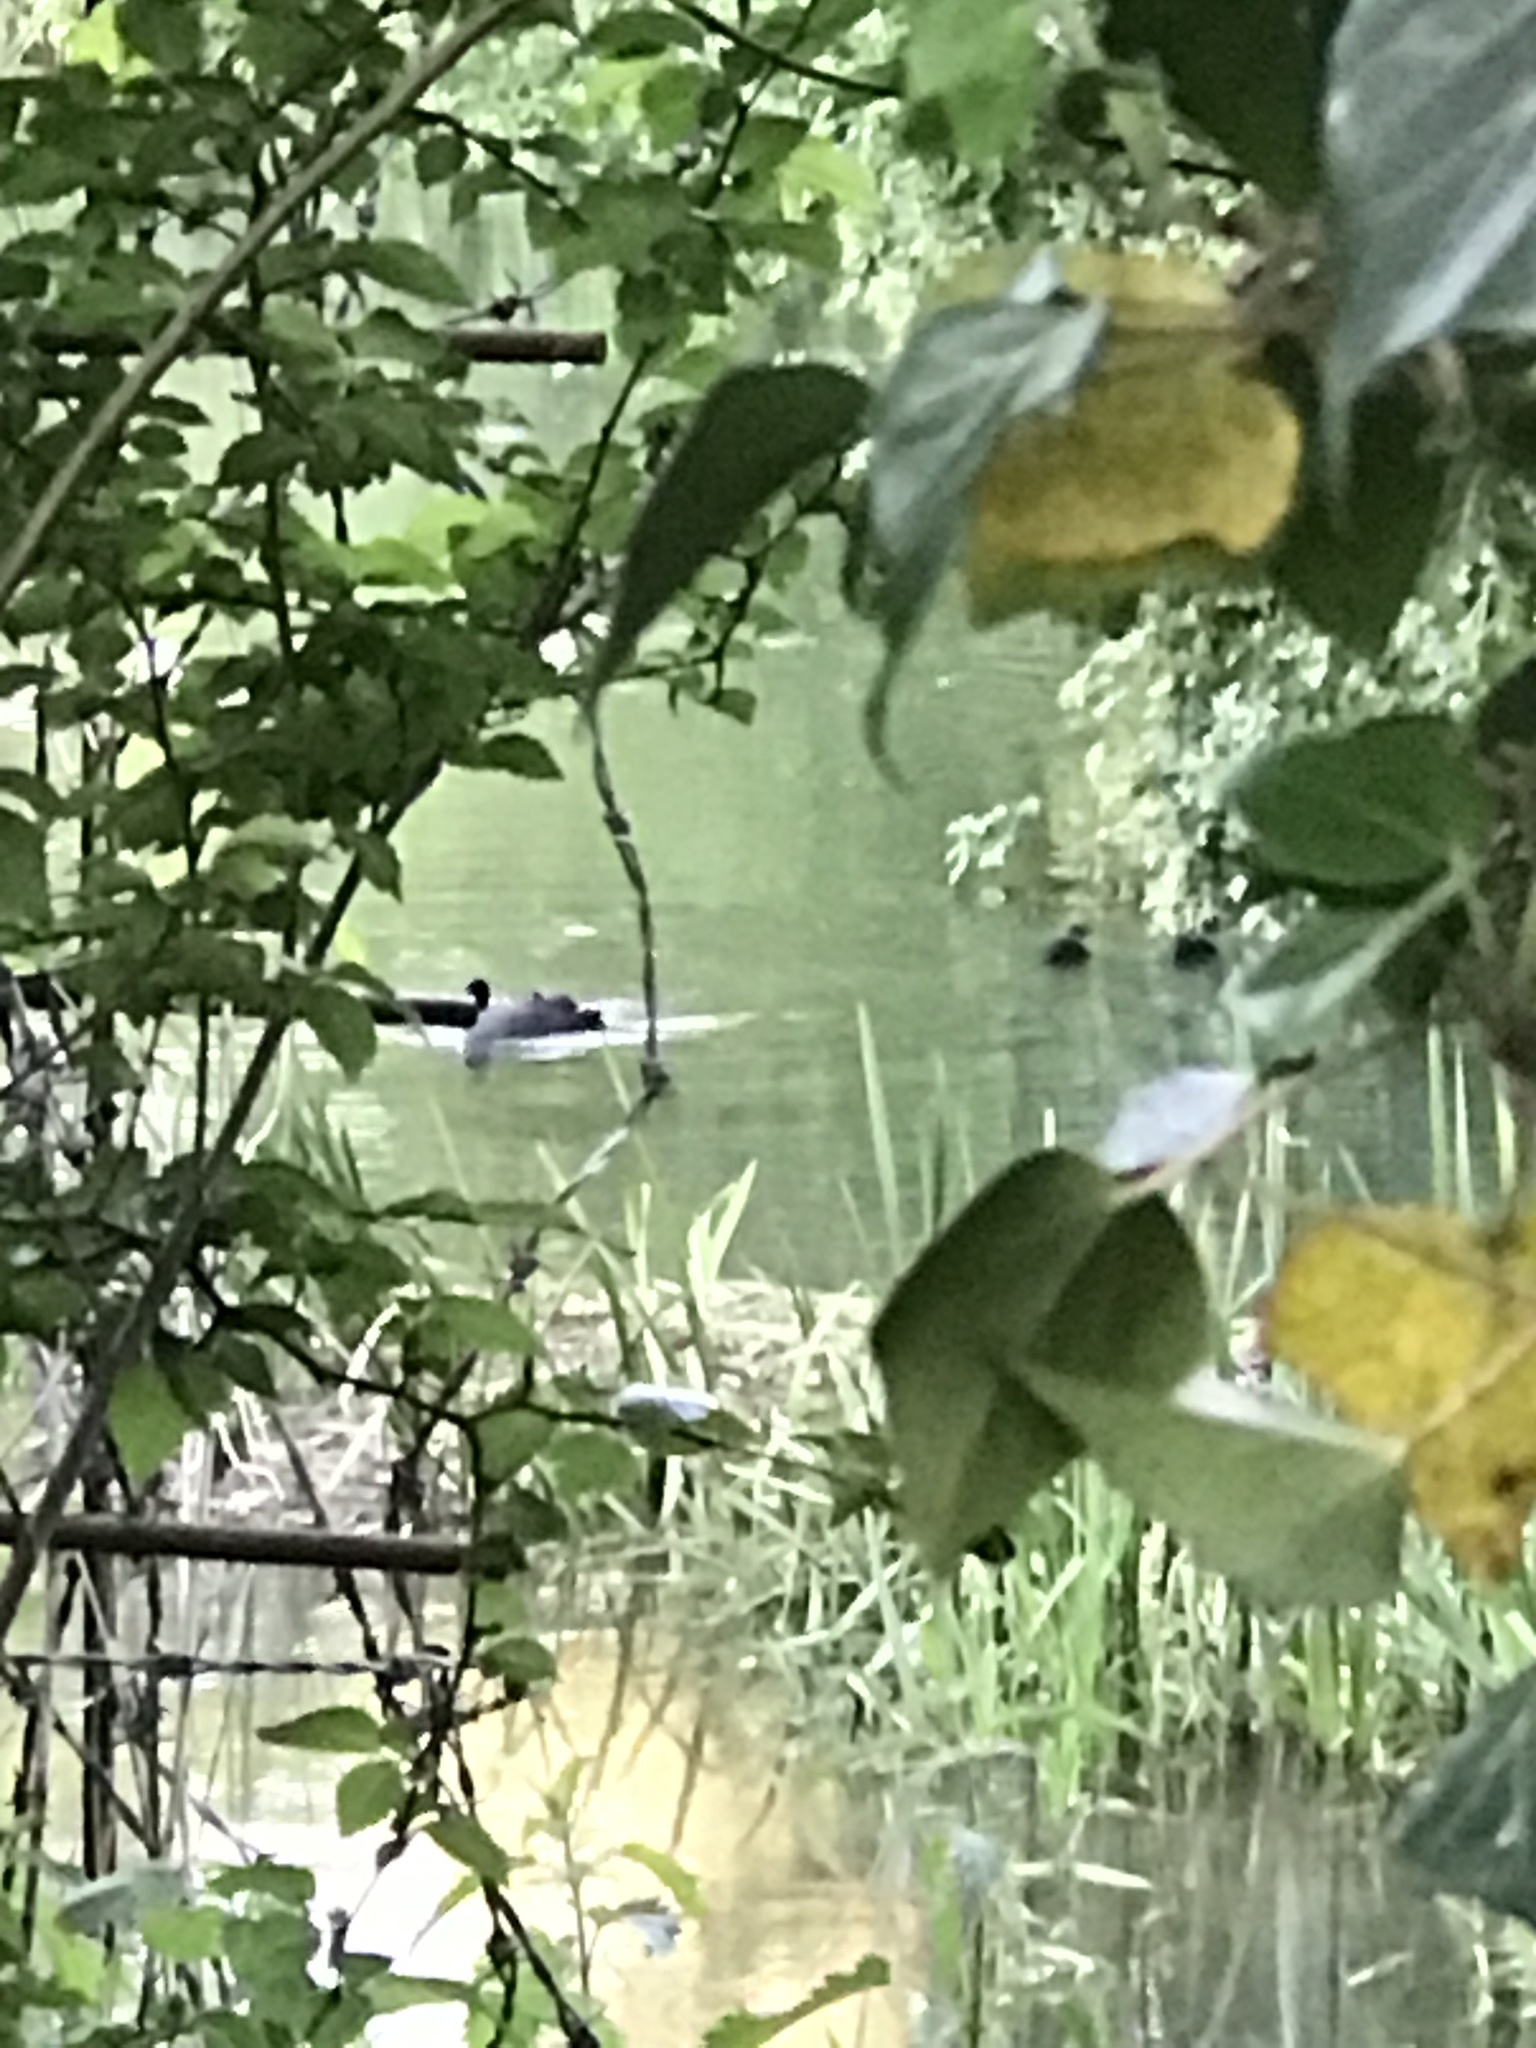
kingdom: Animalia
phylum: Chordata
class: Aves
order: Gruiformes
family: Rallidae
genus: Fulica
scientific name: Fulica atra
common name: Eurasian coot
